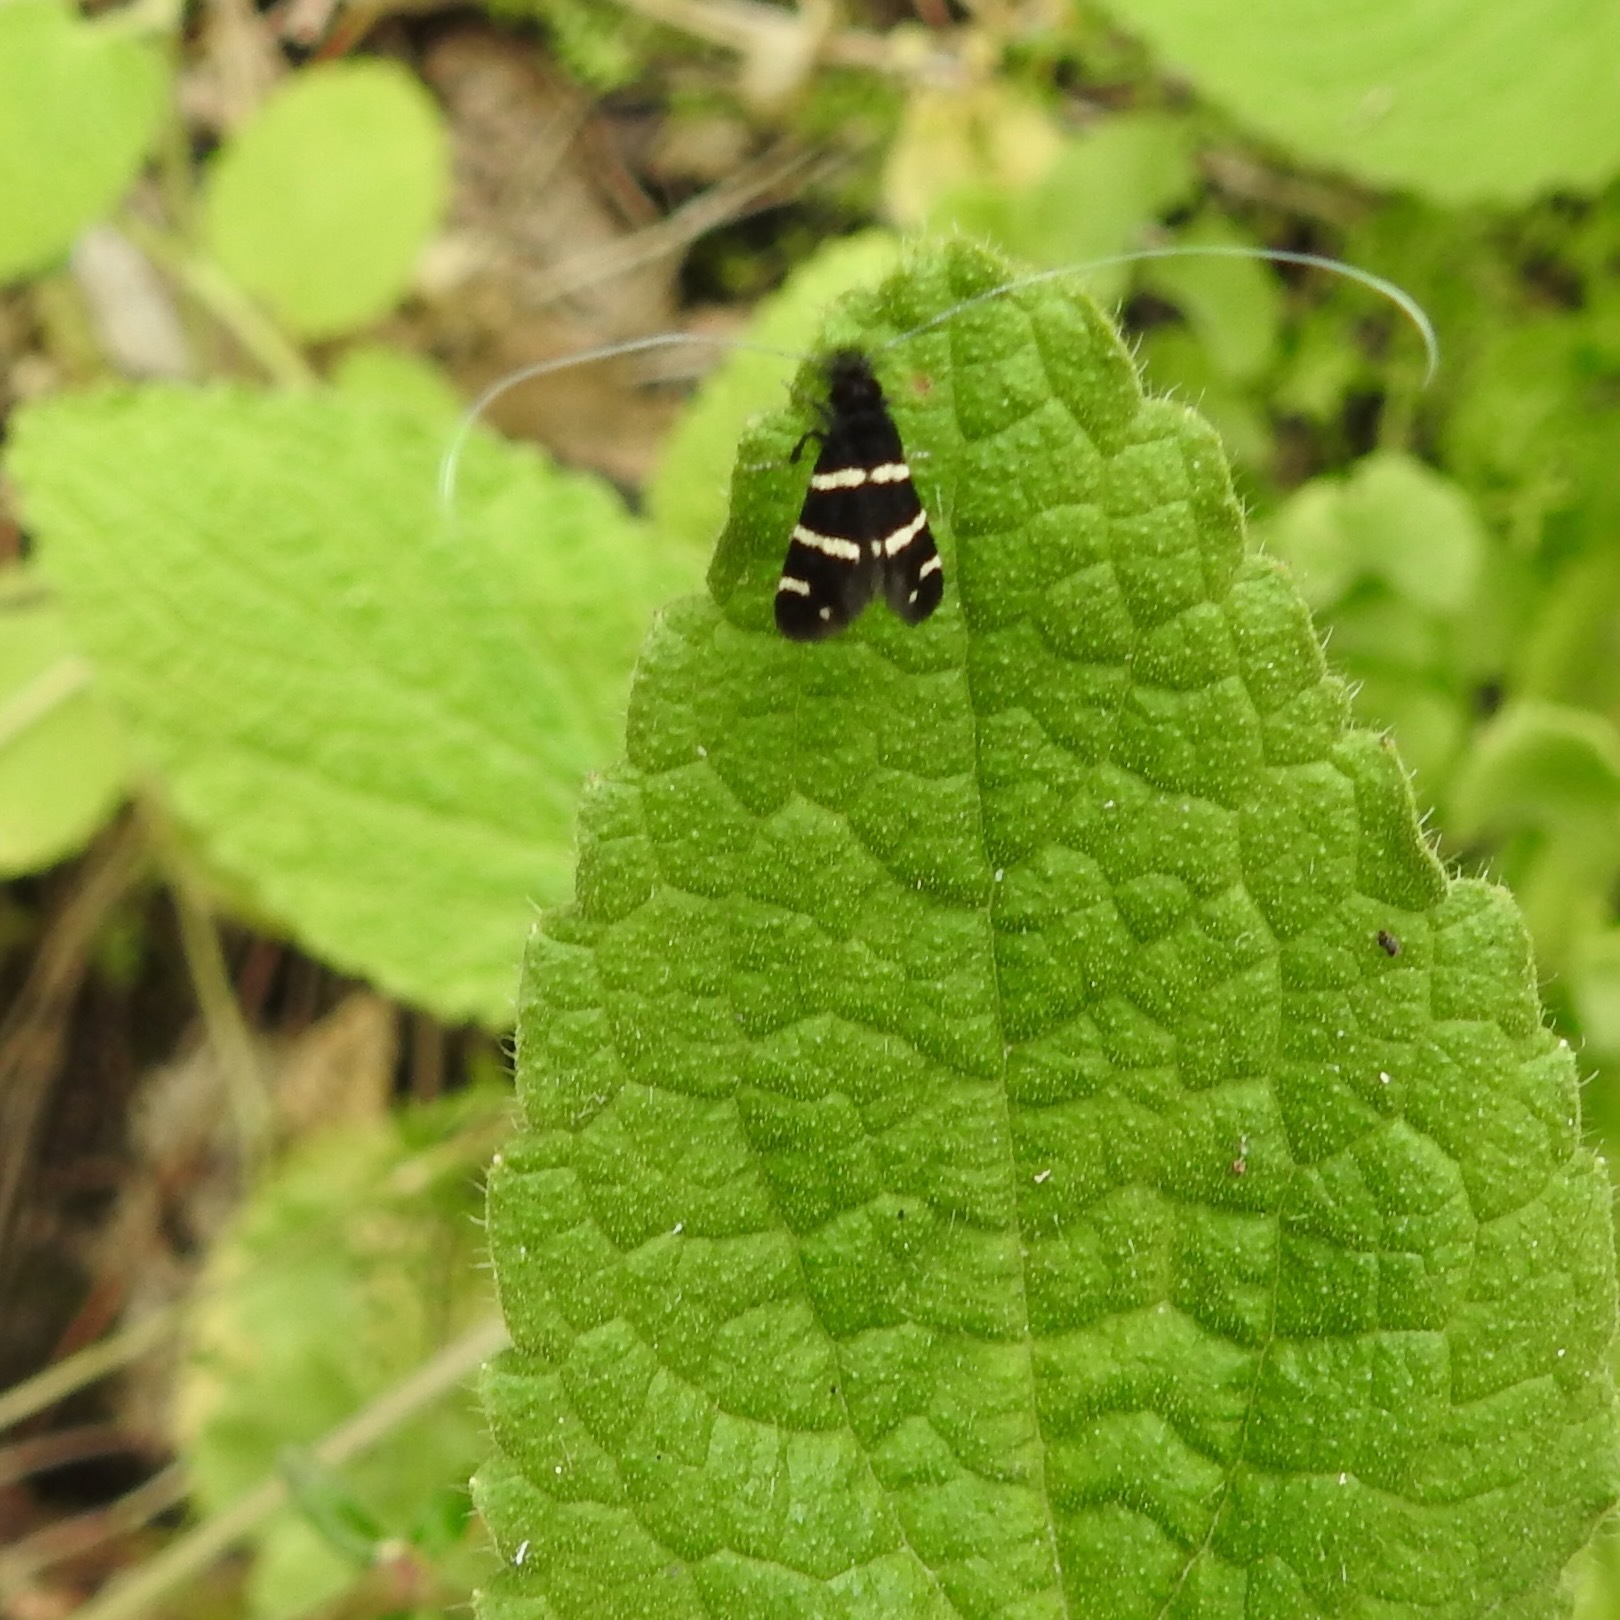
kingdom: Animalia
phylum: Arthropoda
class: Insecta
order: Lepidoptera
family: Adelidae
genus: Adela
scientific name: Adela trigrapha
